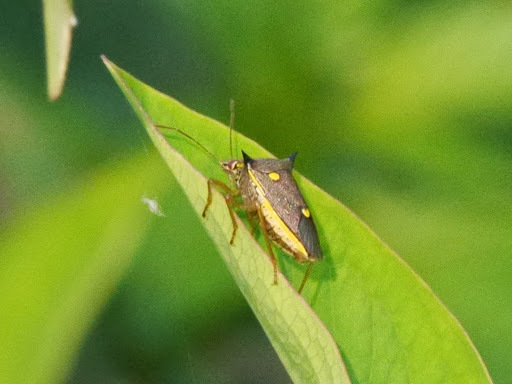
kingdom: Animalia
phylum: Arthropoda
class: Insecta
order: Hemiptera
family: Pentatomidae
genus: Aspavia
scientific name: Aspavia armigera
